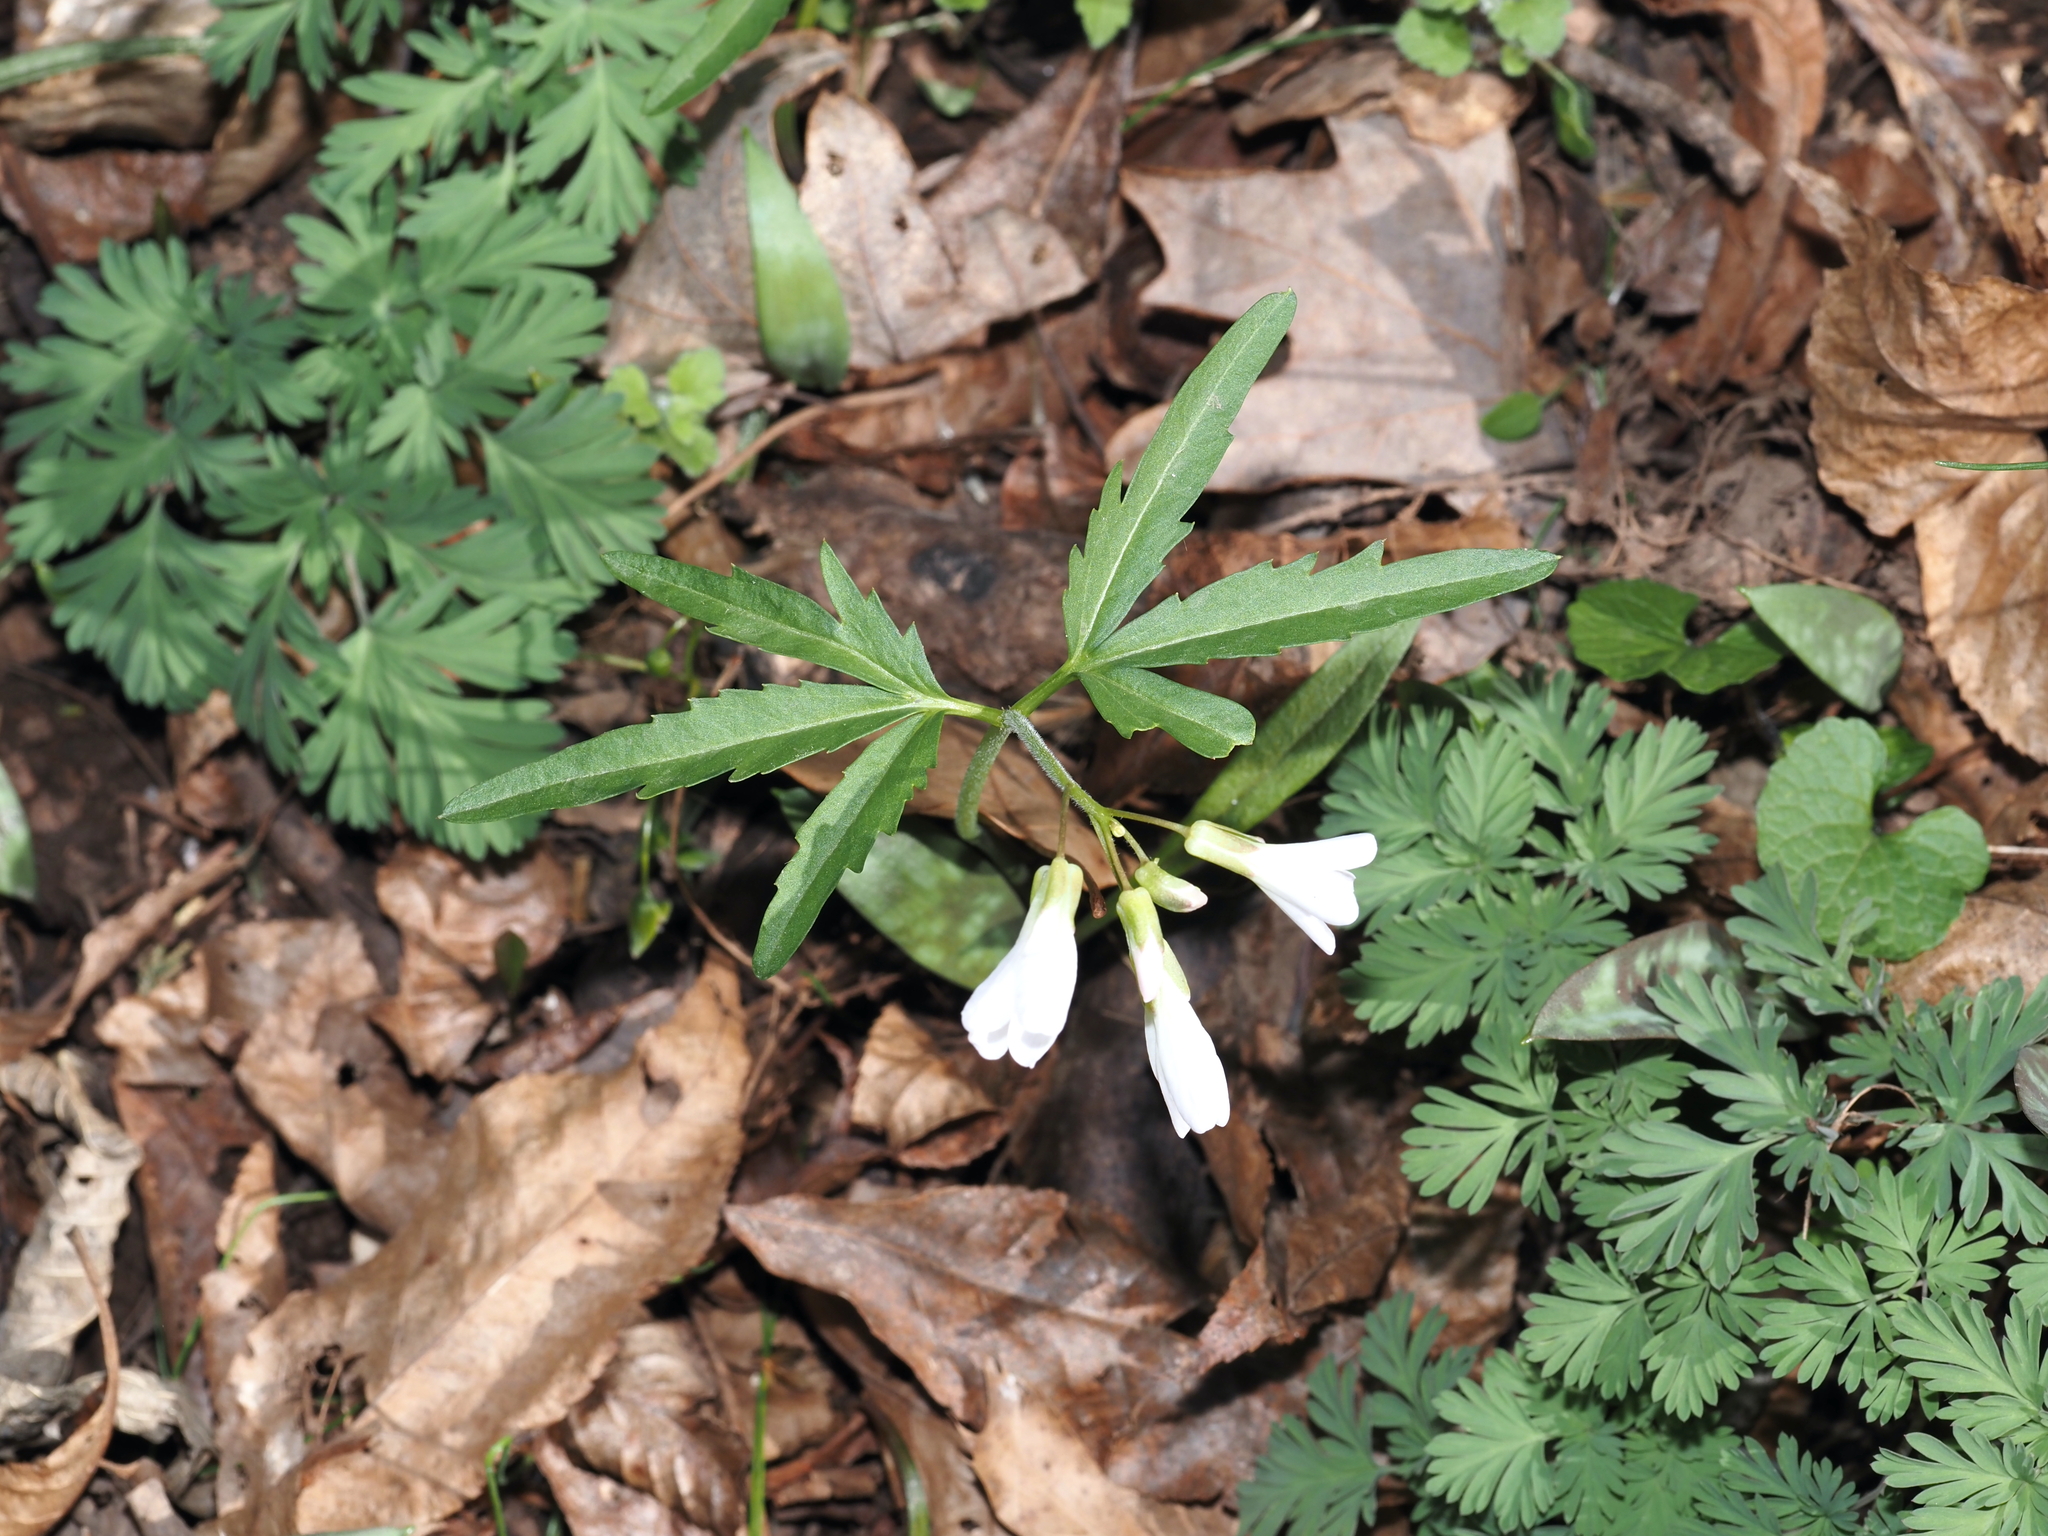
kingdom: Plantae
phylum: Tracheophyta
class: Magnoliopsida
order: Brassicales
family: Brassicaceae
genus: Cardamine
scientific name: Cardamine concatenata
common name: Cut-leaf toothcup
